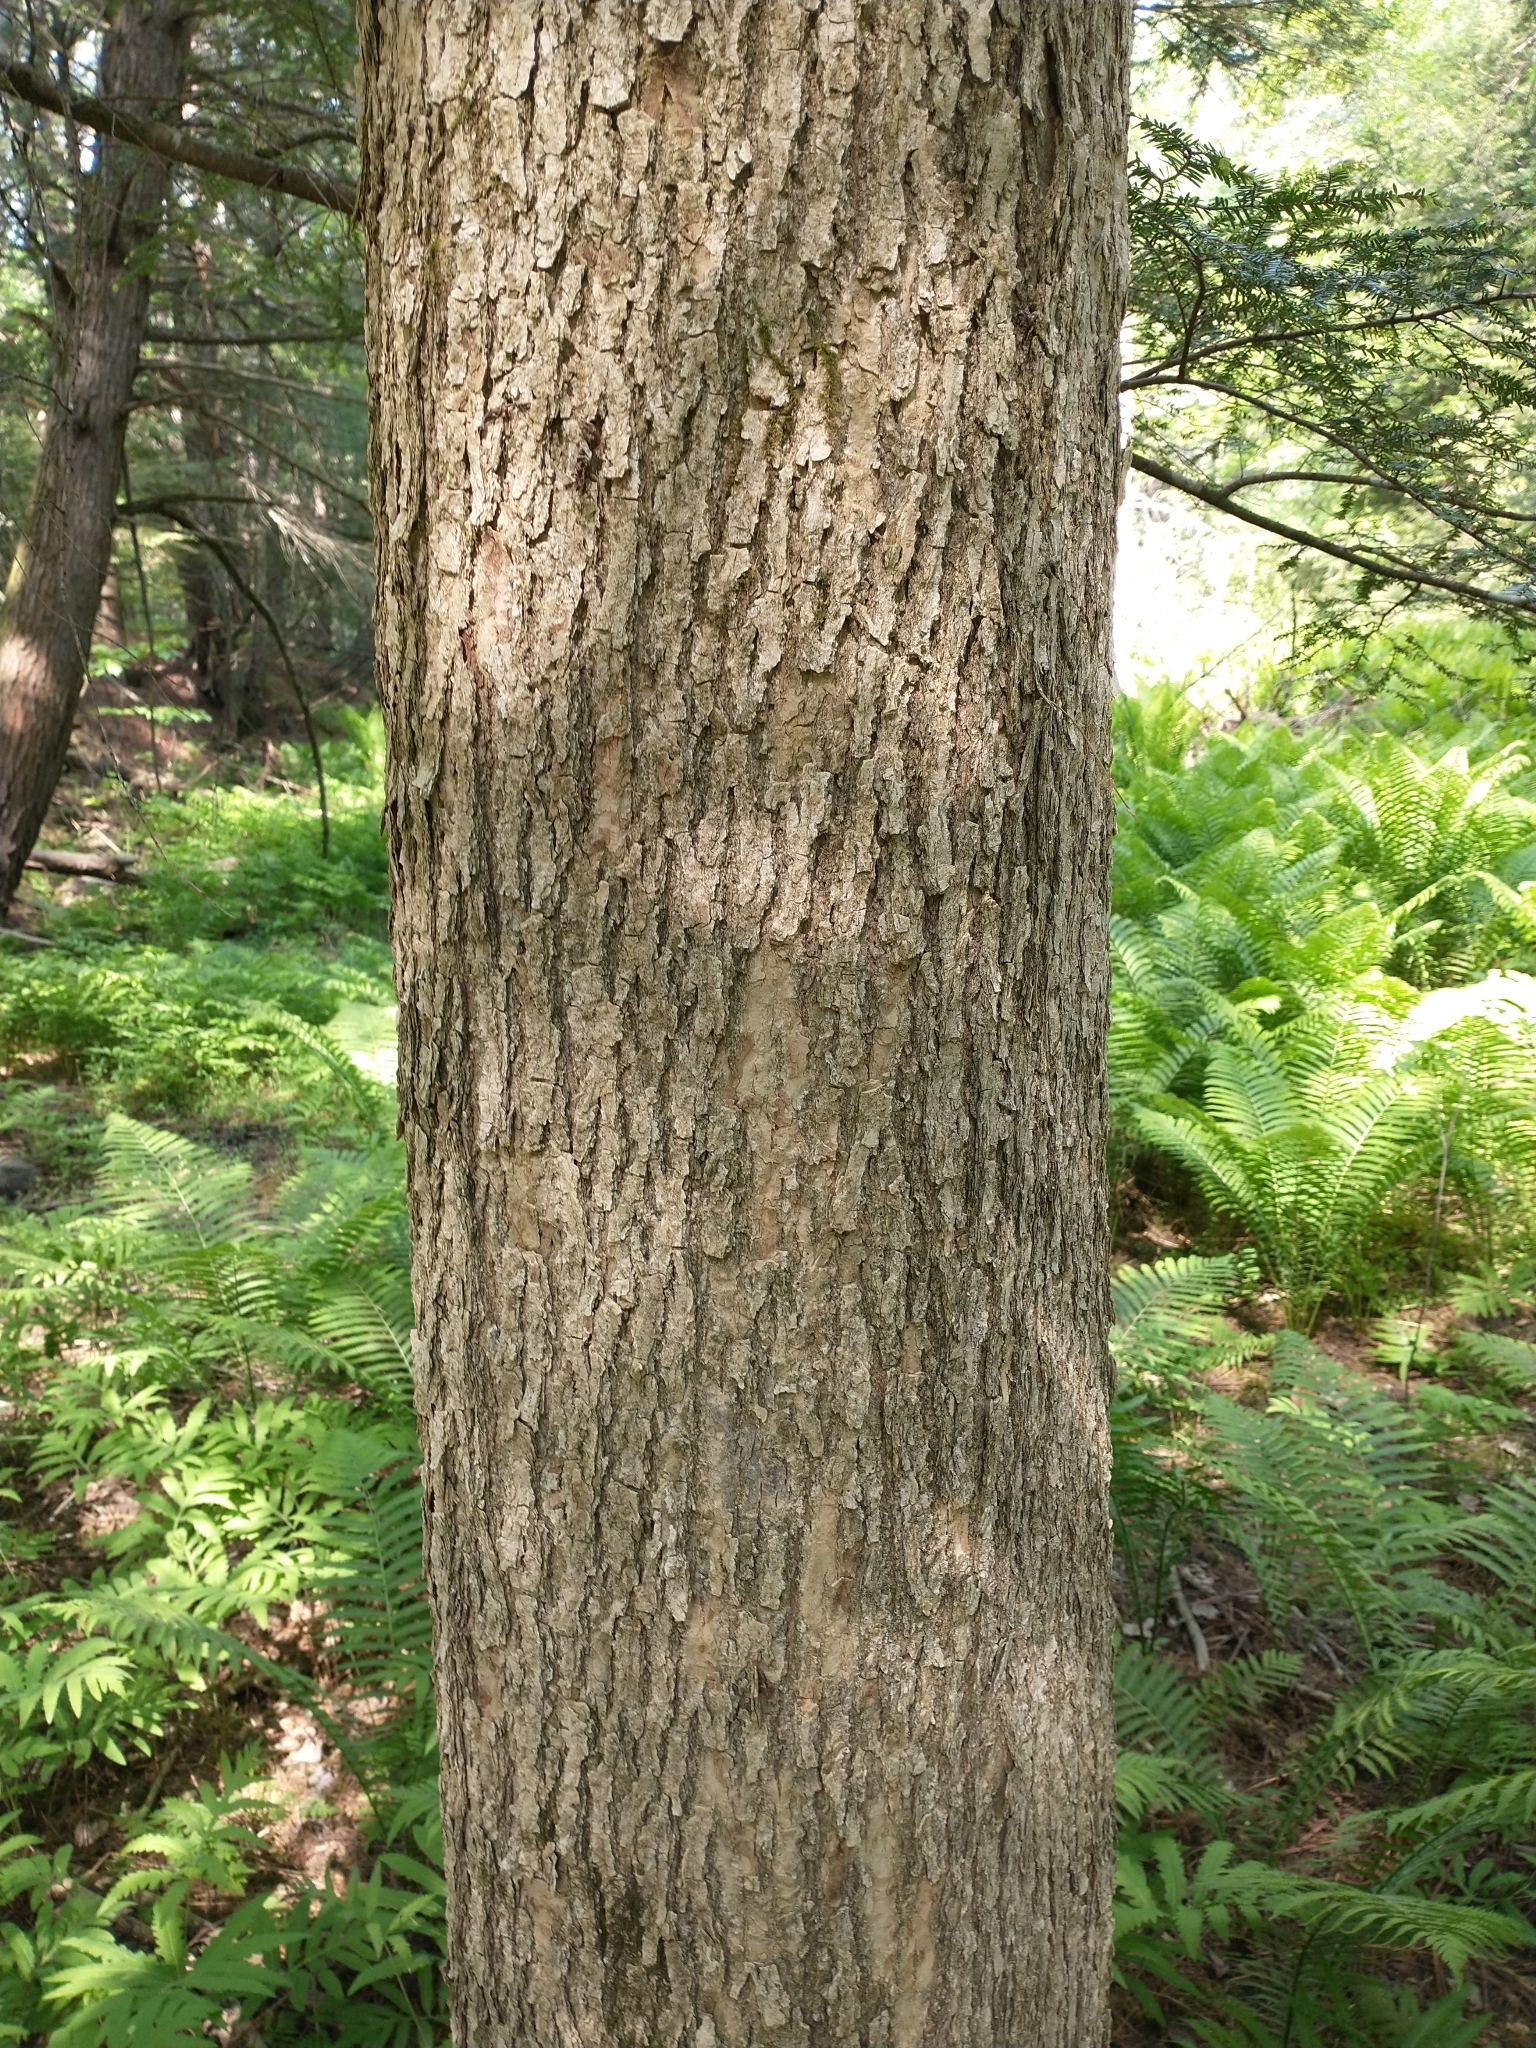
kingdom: Plantae
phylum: Tracheophyta
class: Magnoliopsida
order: Lamiales
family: Oleaceae
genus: Fraxinus
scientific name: Fraxinus nigra
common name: Black ash
